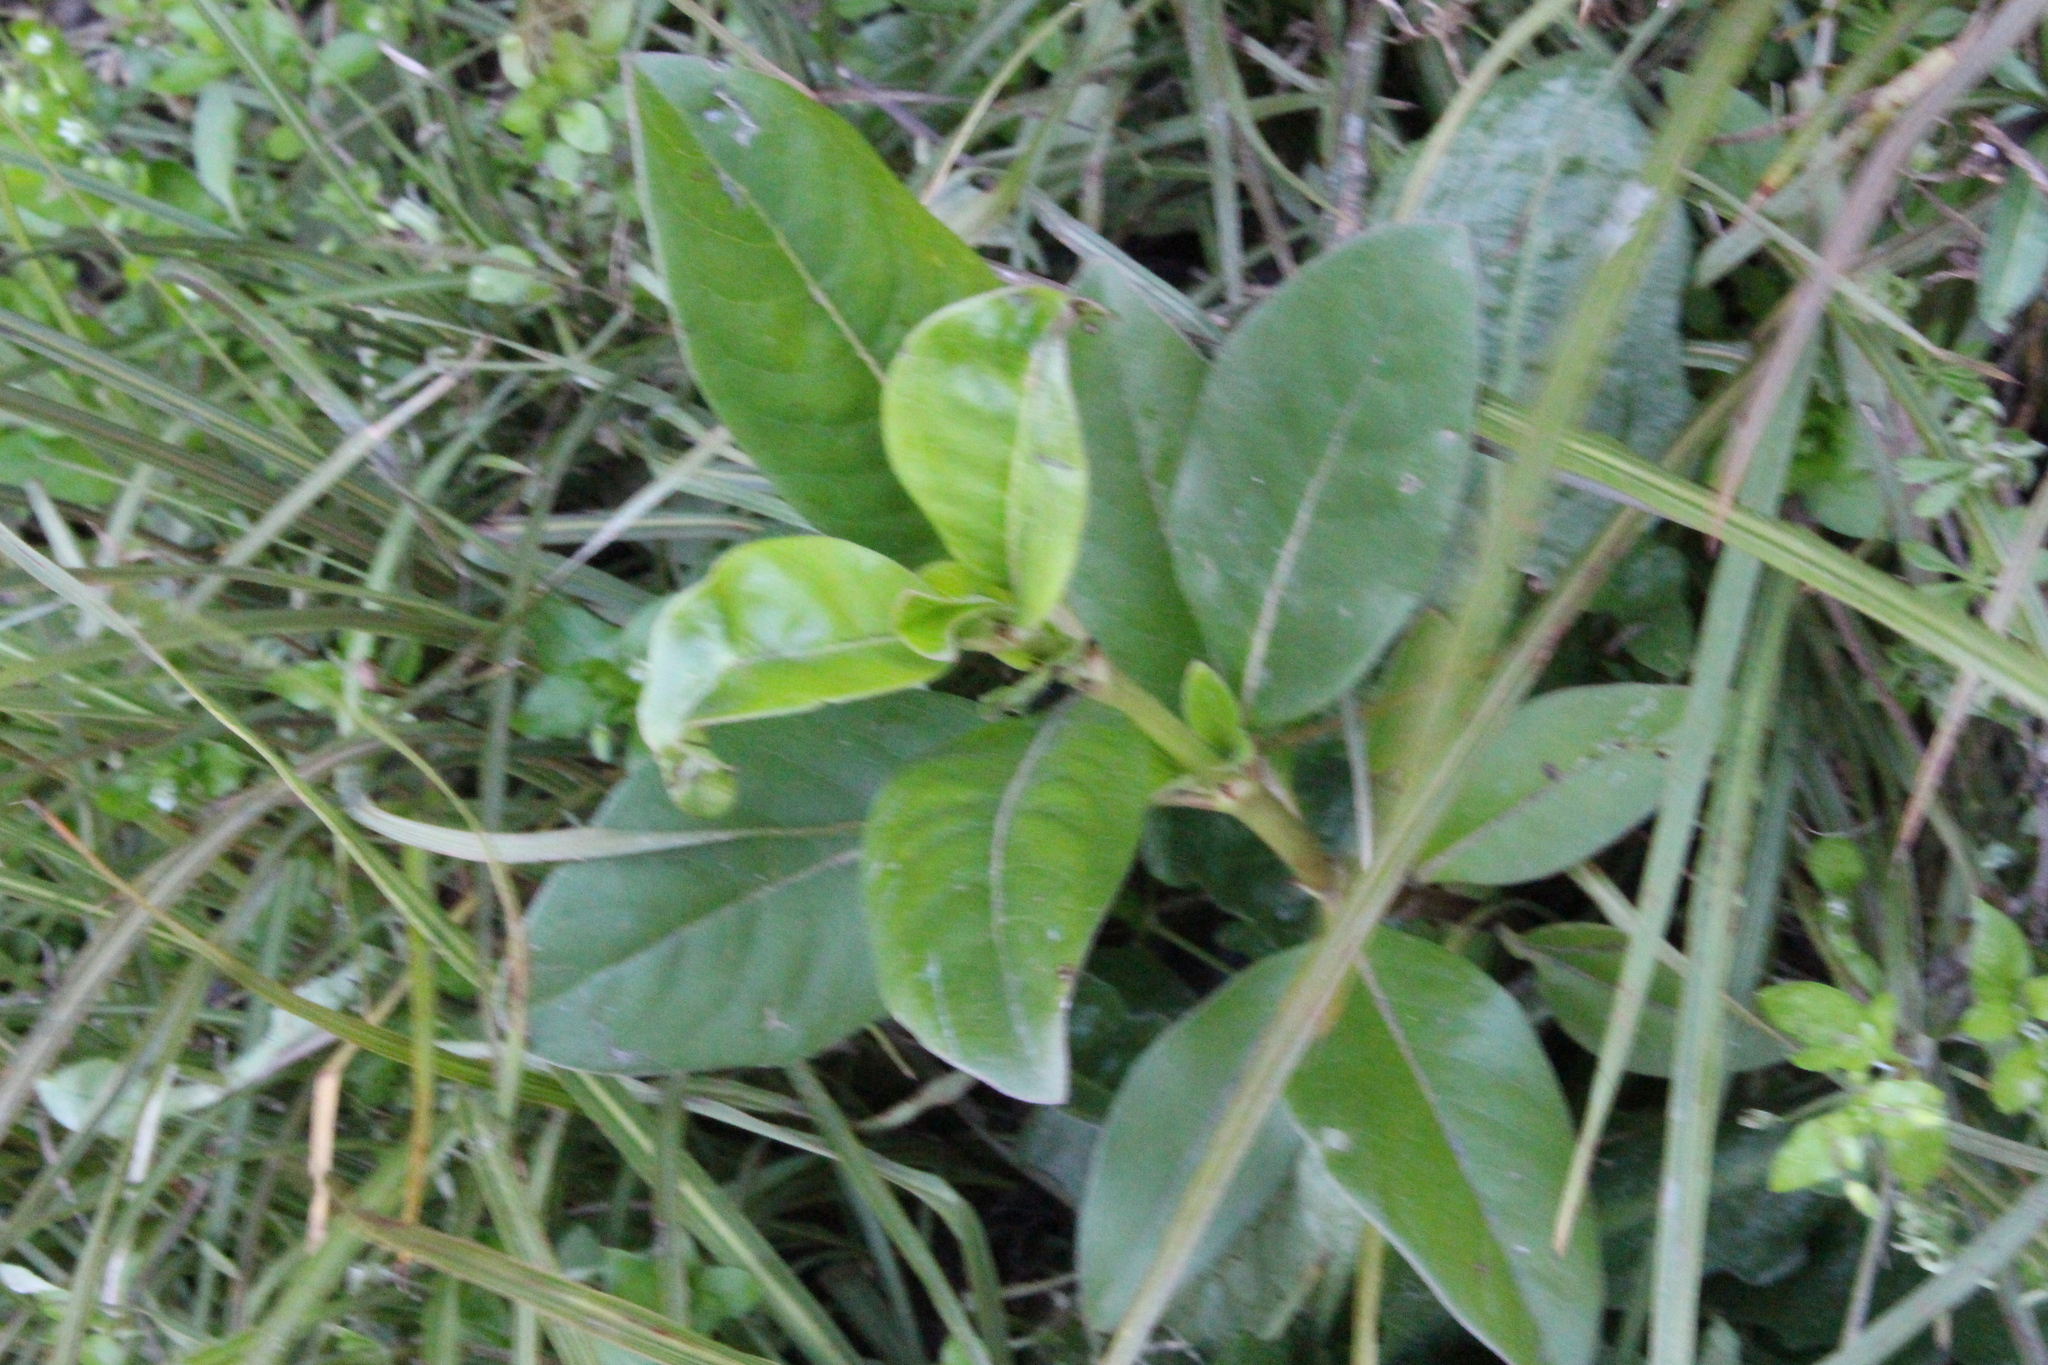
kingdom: Plantae
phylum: Tracheophyta
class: Magnoliopsida
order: Gentianales
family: Rubiaceae
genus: Coprosma
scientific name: Coprosma robusta
